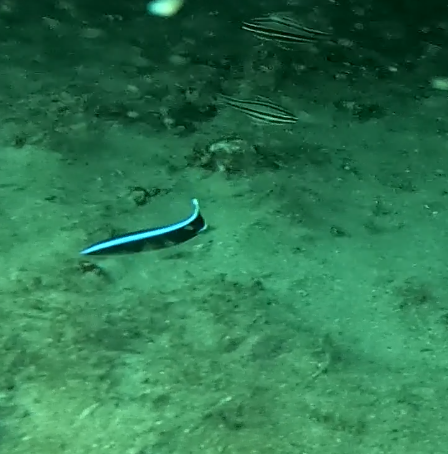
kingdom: Animalia
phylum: Chordata
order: Perciformes
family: Labridae
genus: Labroides
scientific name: Labroides dimidiatus
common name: Blue diesel wrasse
